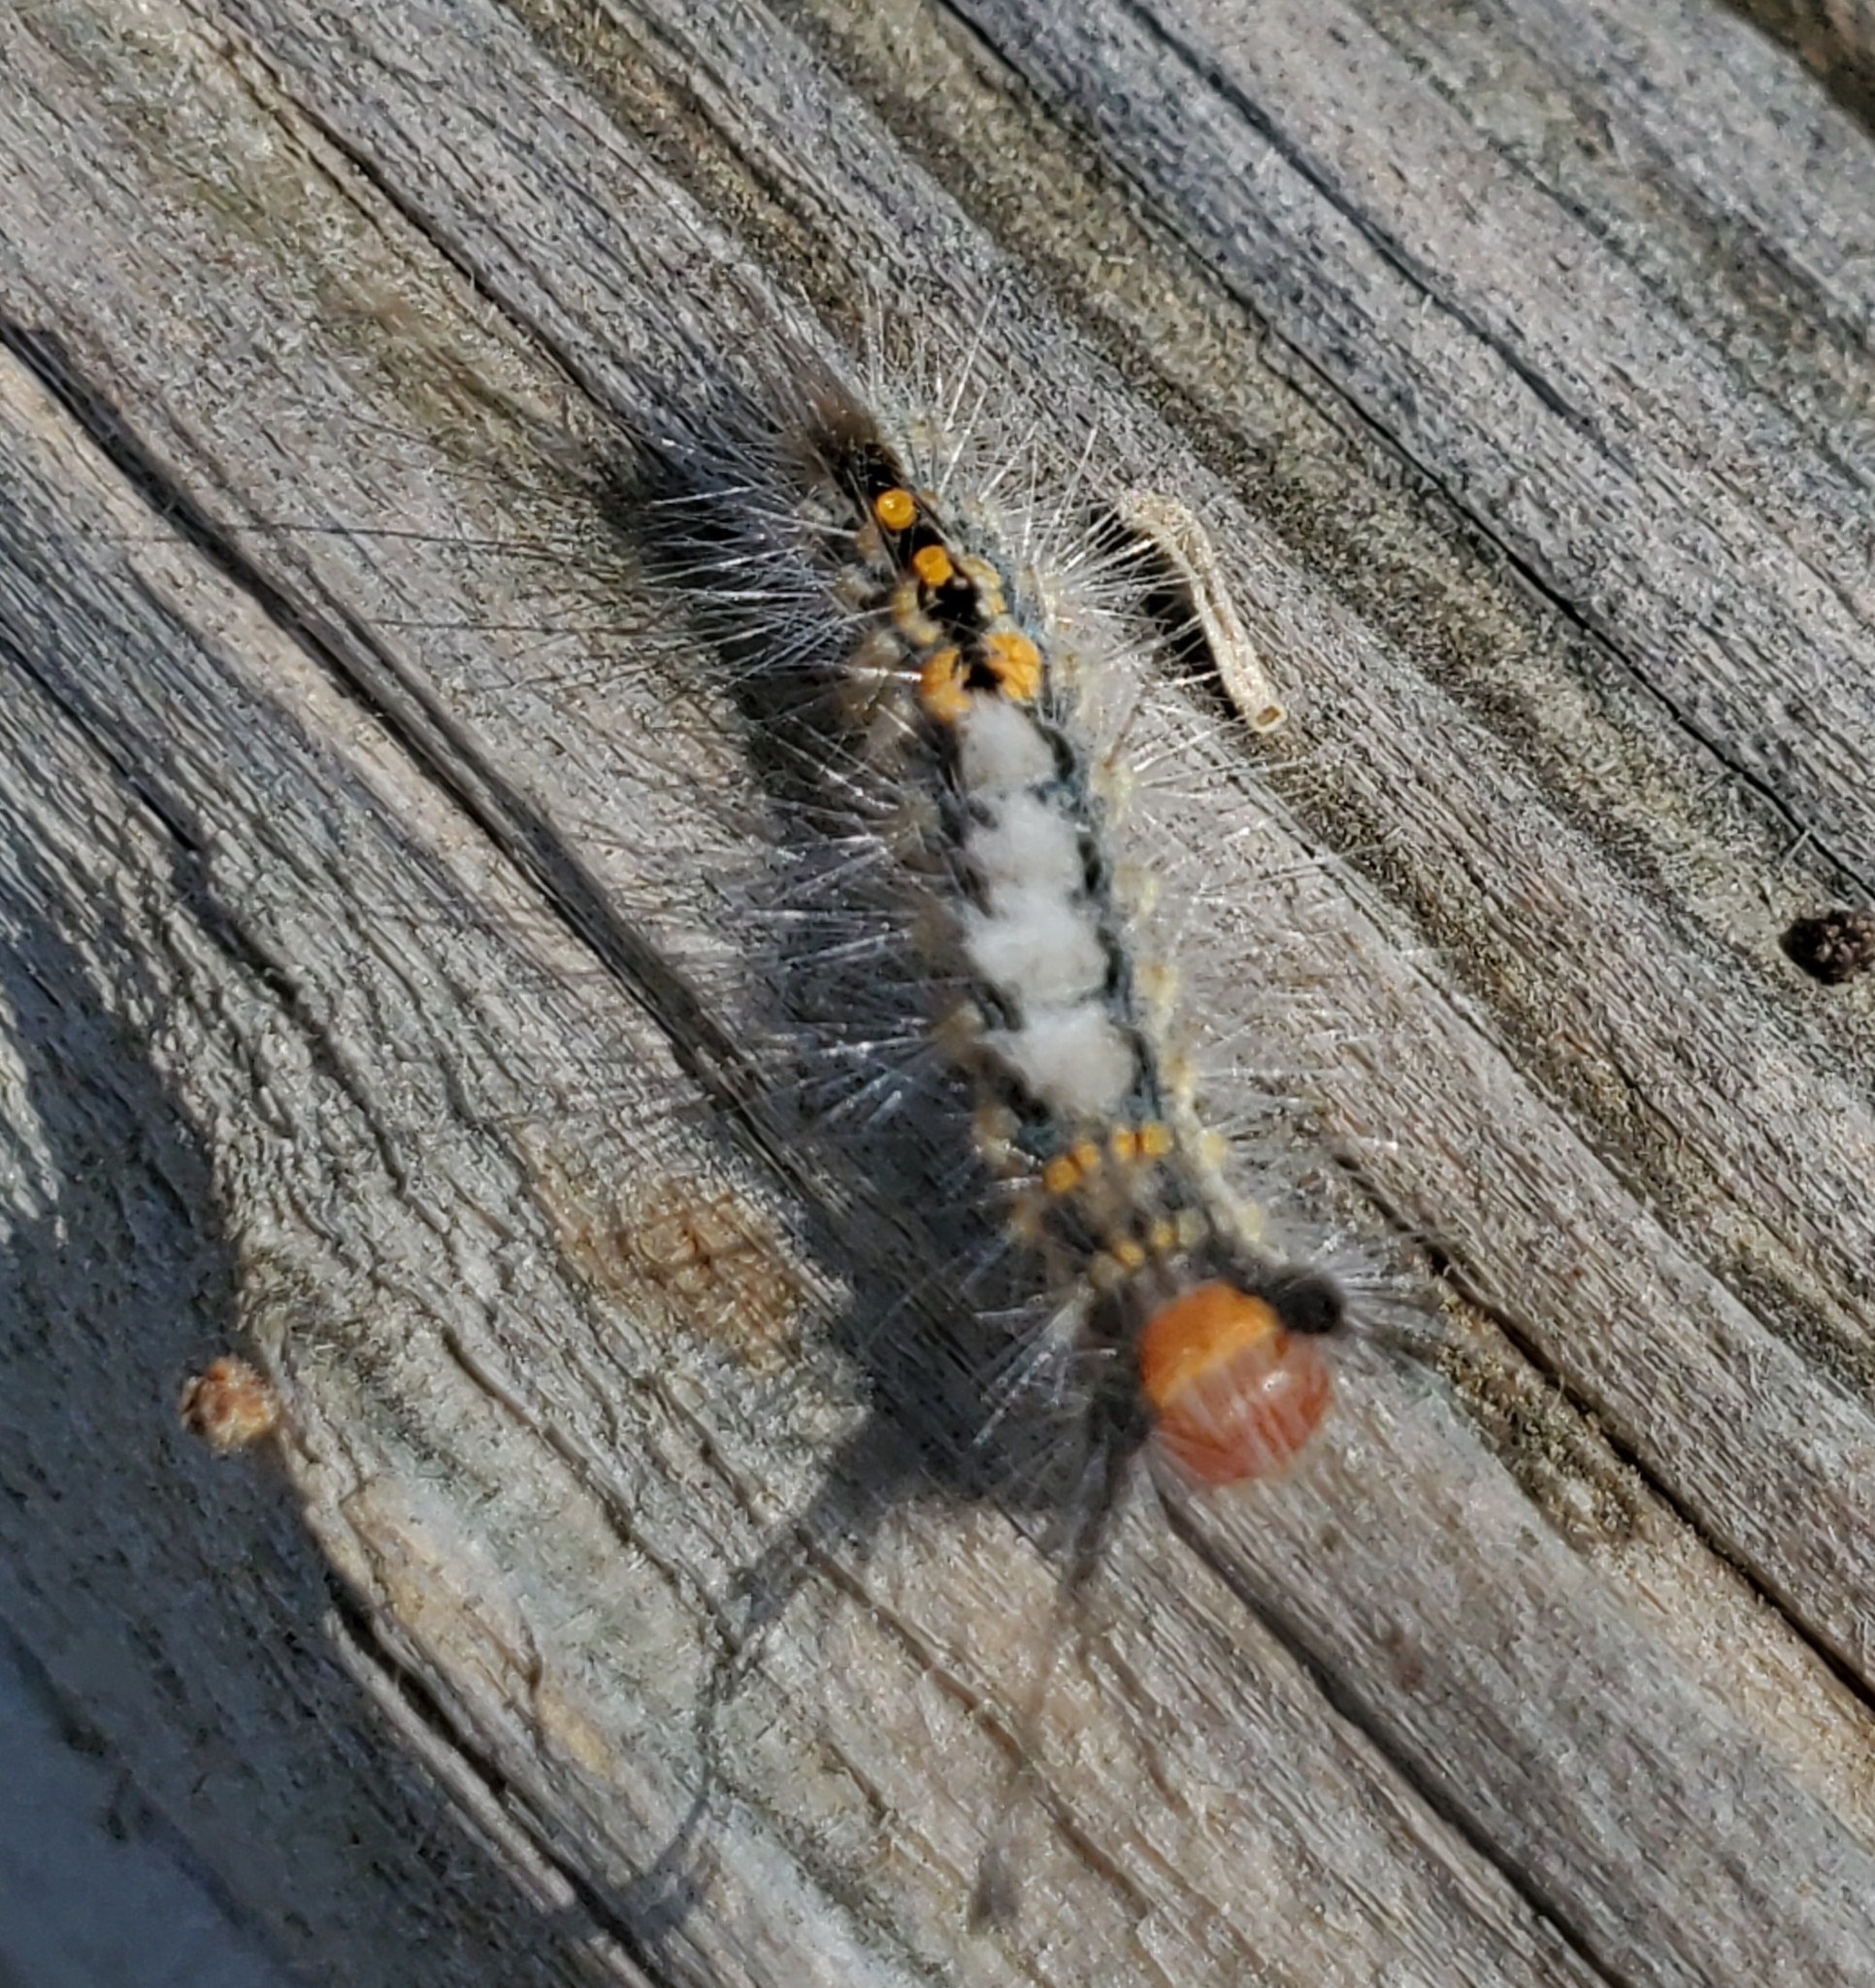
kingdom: Animalia
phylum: Arthropoda
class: Insecta
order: Lepidoptera
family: Erebidae
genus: Orgyia
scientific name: Orgyia detrita
